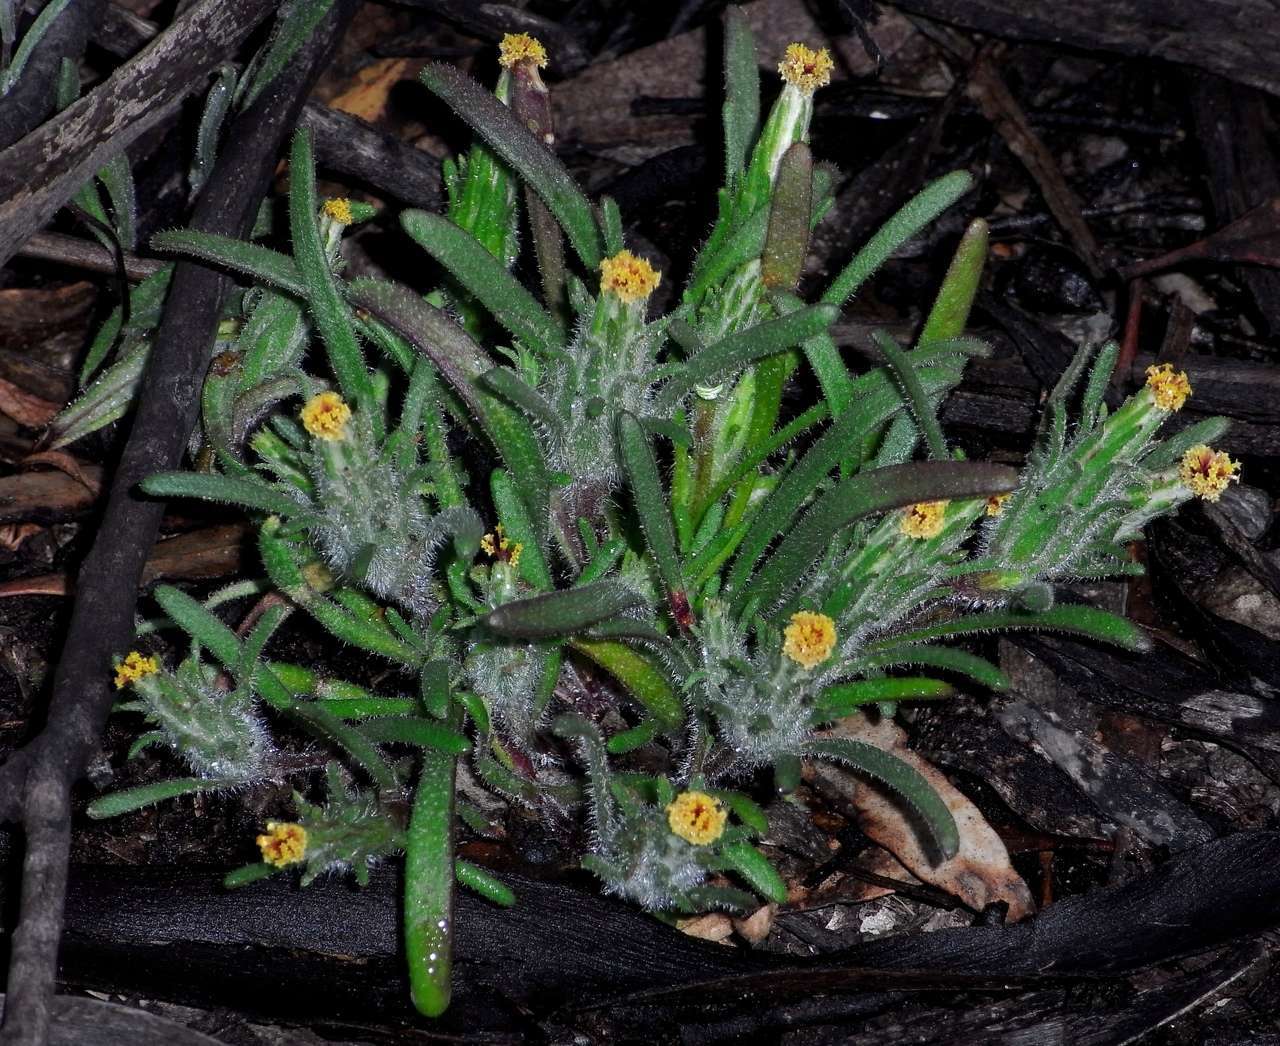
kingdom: Plantae
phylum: Tracheophyta
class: Magnoliopsida
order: Asterales
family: Asteraceae
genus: Podotheca
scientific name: Podotheca angustifolia
